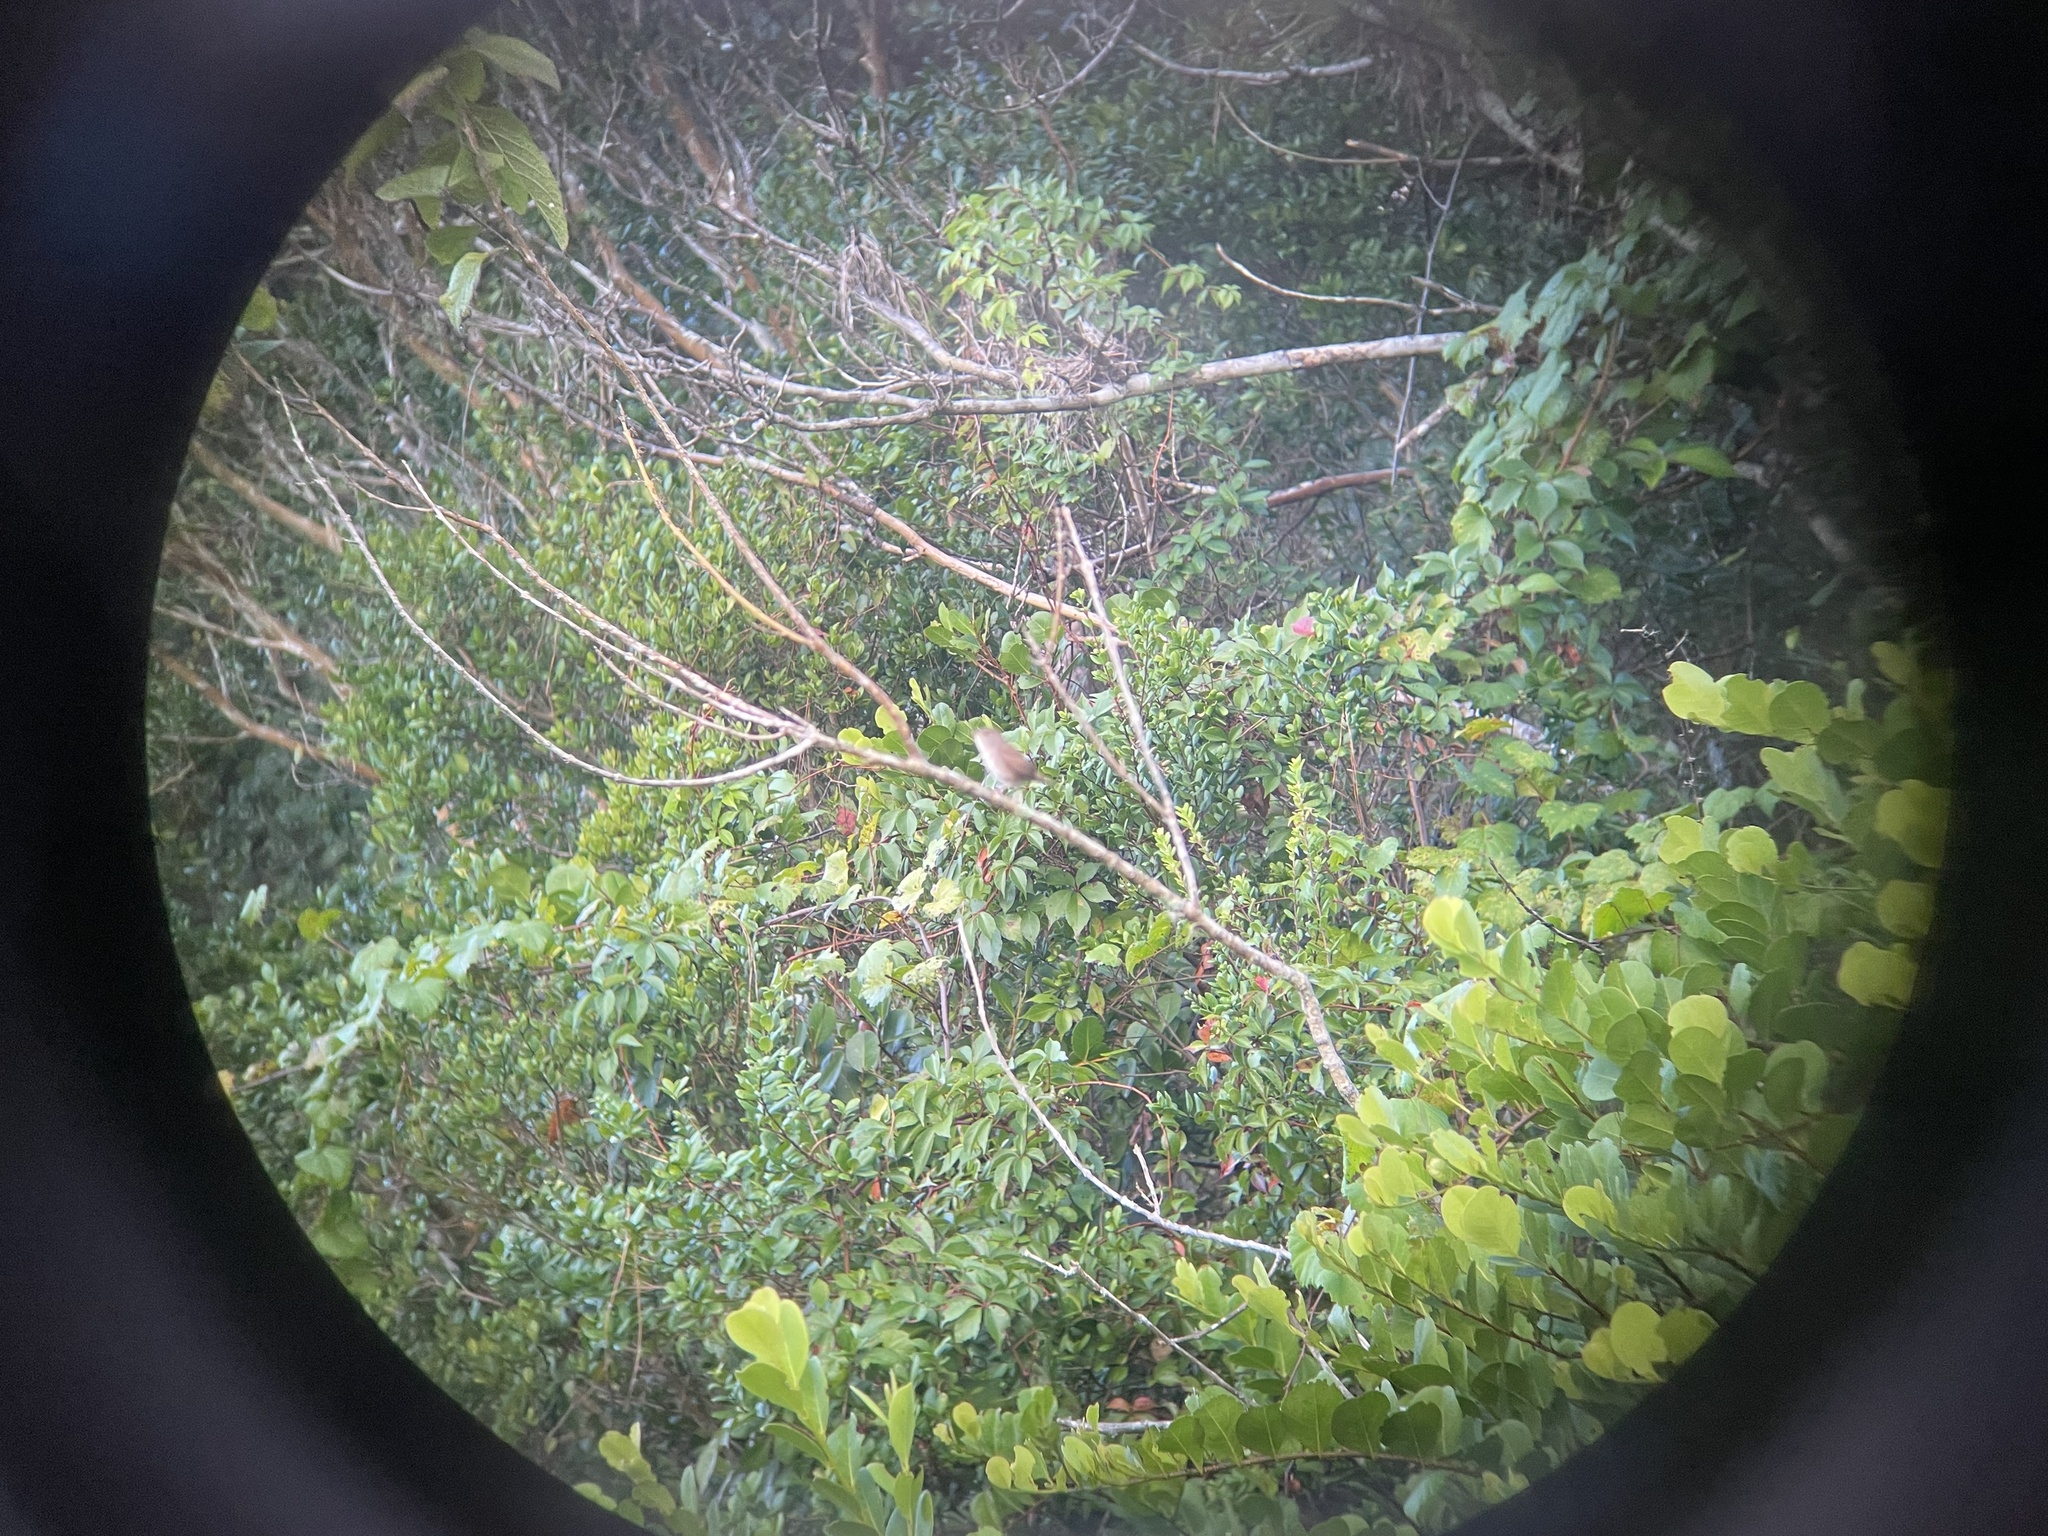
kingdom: Animalia
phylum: Chordata
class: Aves
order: Passeriformes
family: Troglodytidae
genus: Troglodytes
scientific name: Troglodytes aedon
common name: House wren
